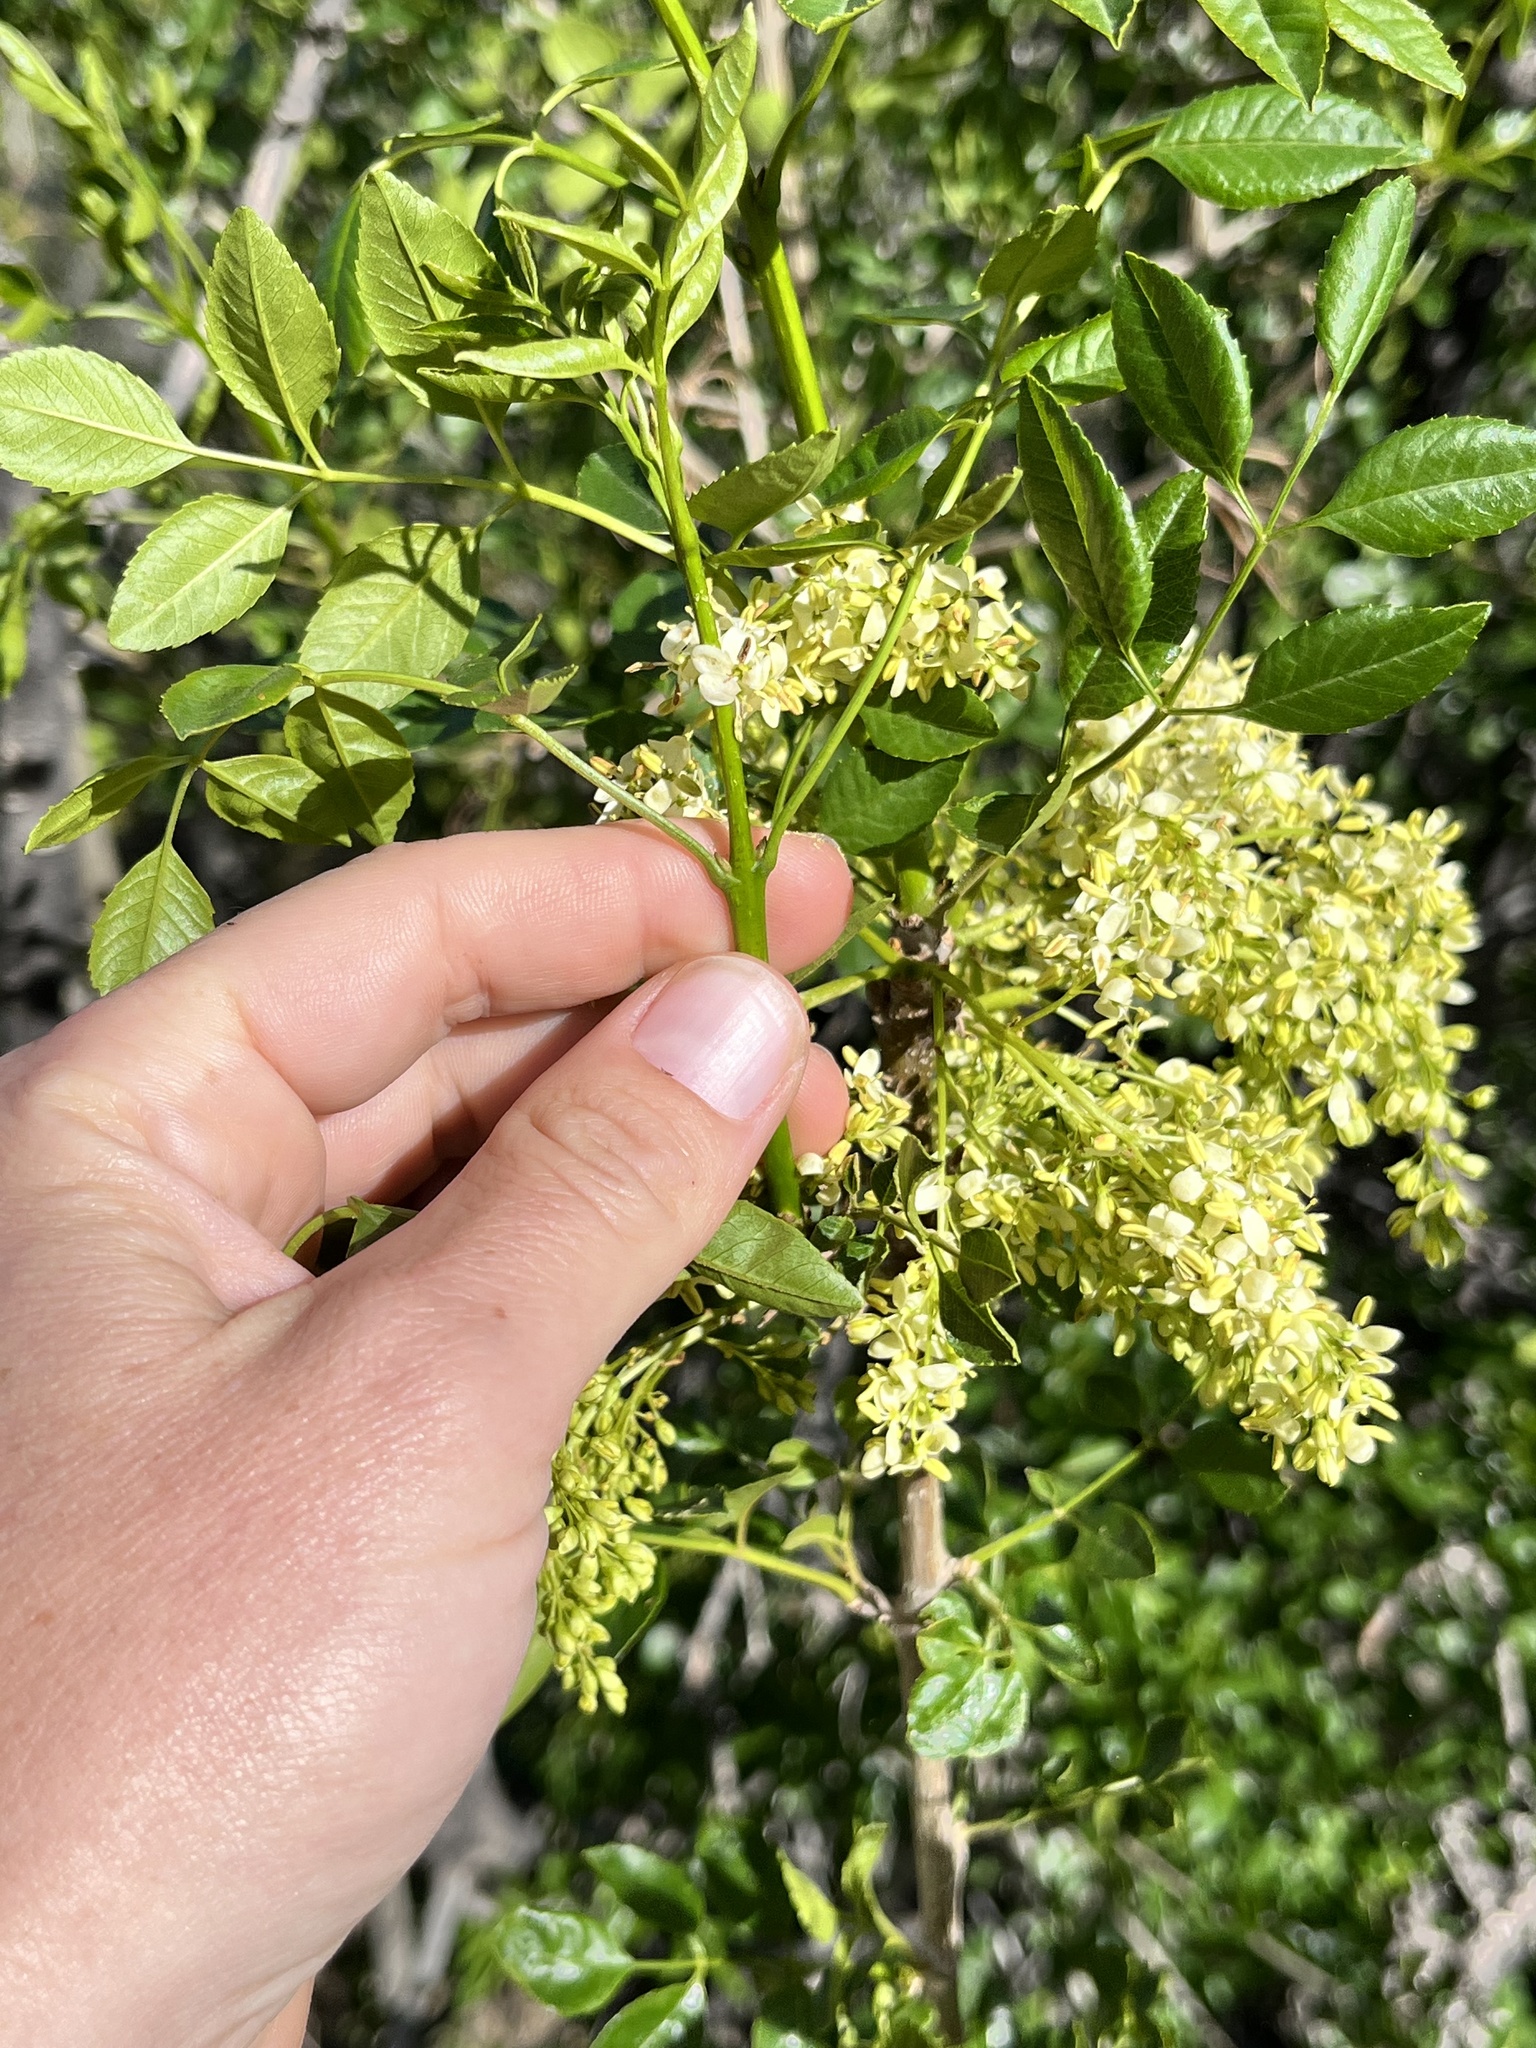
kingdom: Plantae
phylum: Tracheophyta
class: Magnoliopsida
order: Lamiales
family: Oleaceae
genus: Fraxinus
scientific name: Fraxinus dipetala
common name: California ash
